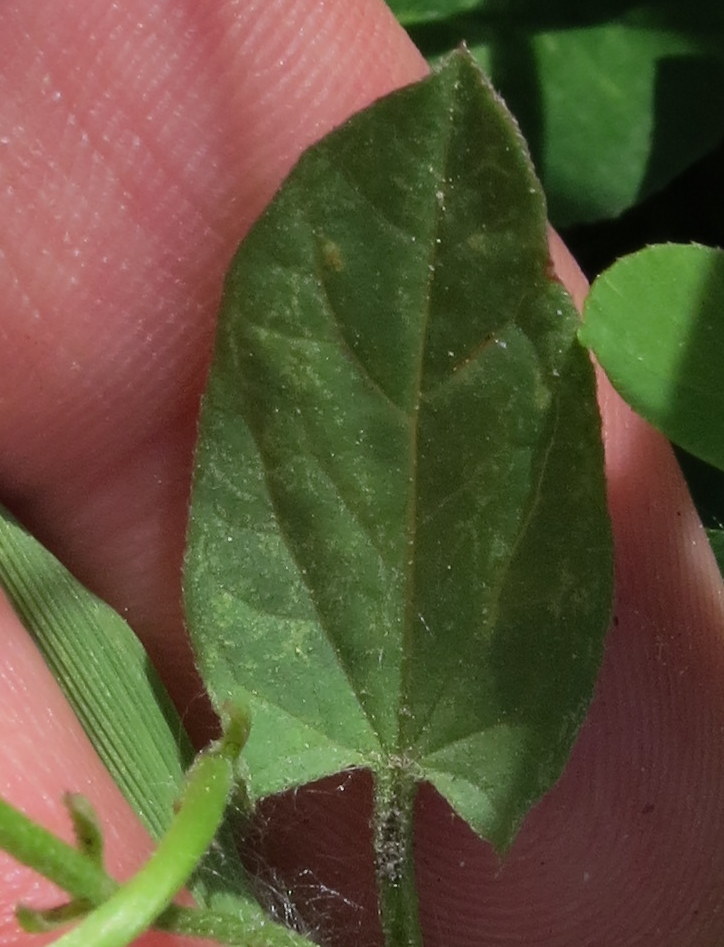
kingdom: Plantae
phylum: Tracheophyta
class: Magnoliopsida
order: Solanales
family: Convolvulaceae
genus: Convolvulus
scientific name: Convolvulus arvensis
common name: Field bindweed
